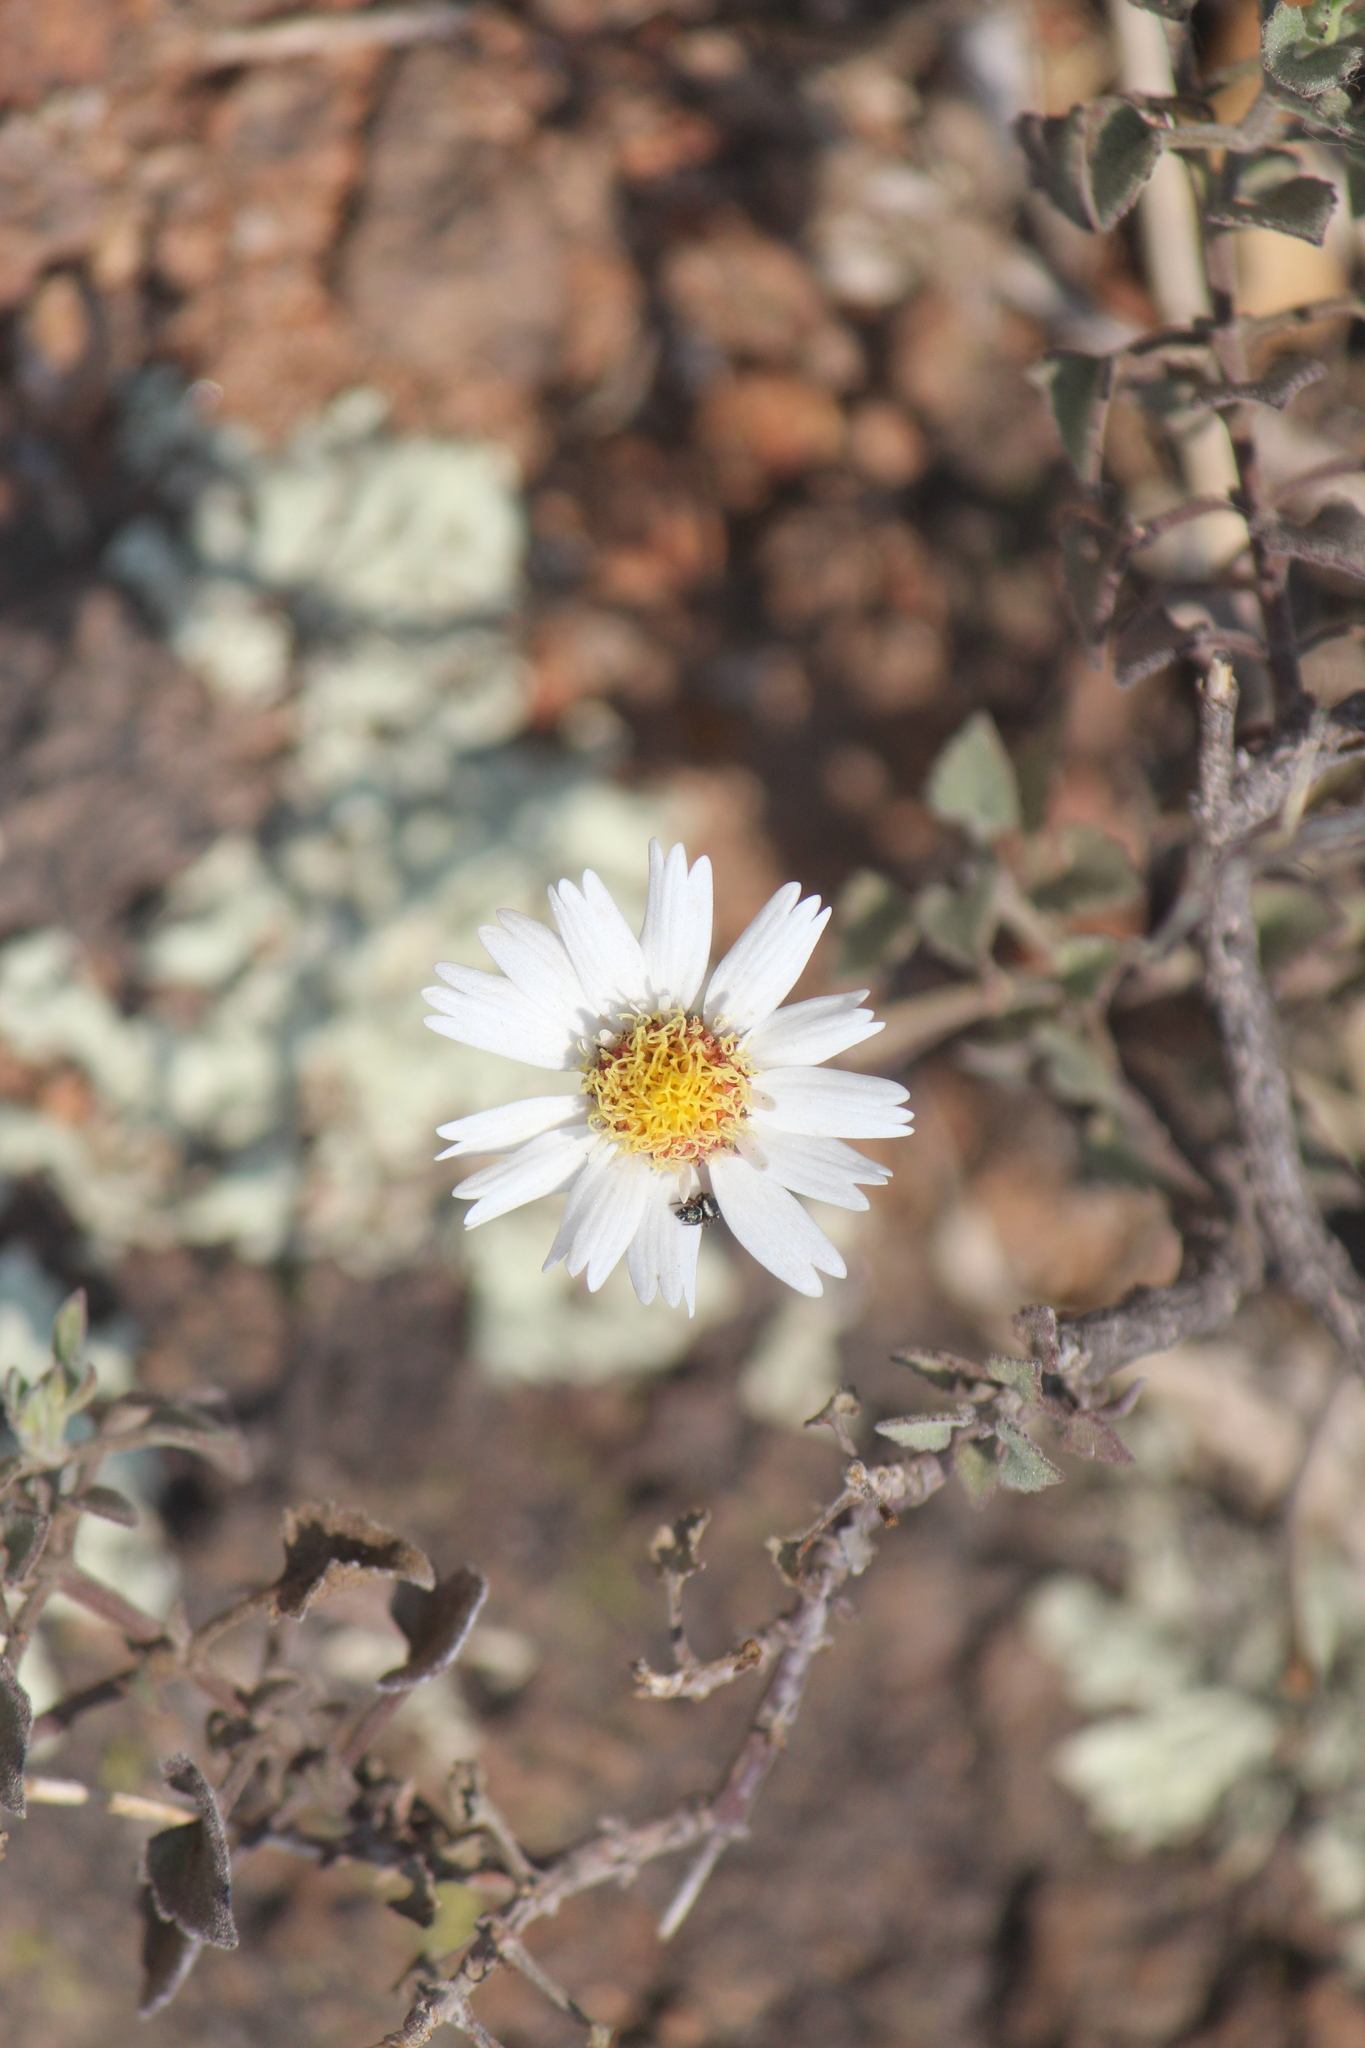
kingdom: Plantae
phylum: Tracheophyta
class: Magnoliopsida
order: Asterales
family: Asteraceae
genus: Eutetras
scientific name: Eutetras pringlei
